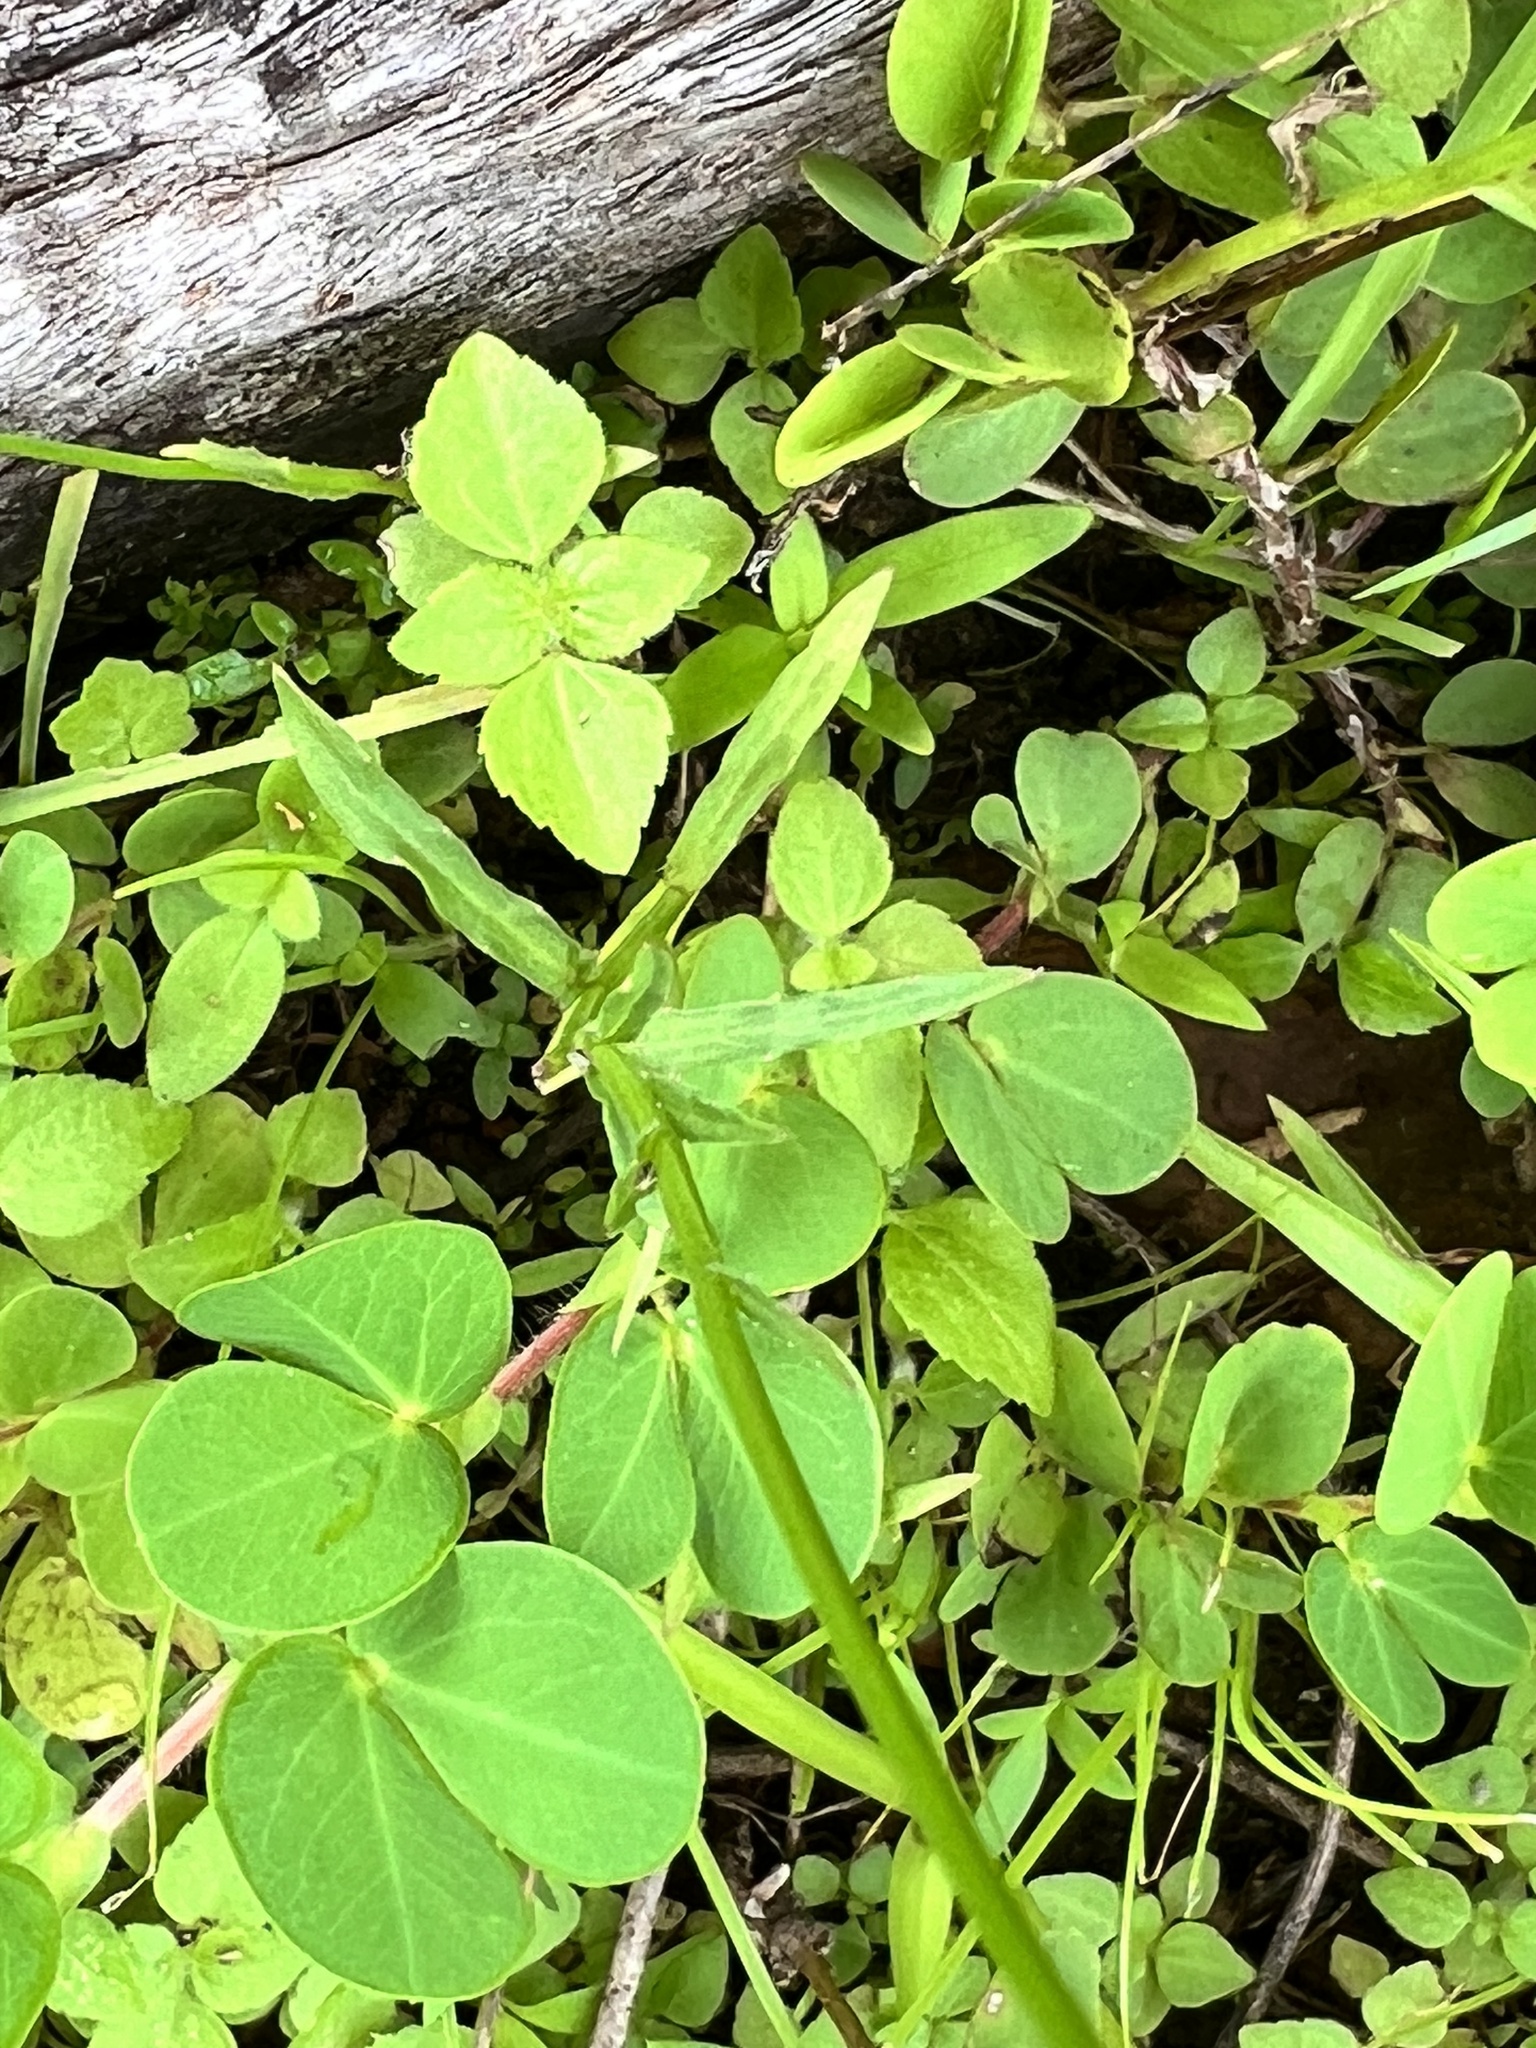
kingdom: Plantae
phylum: Tracheophyta
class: Magnoliopsida
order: Fabales
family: Fabaceae
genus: Chamaecrista
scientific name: Chamaecrista rotundifolia
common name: Round-leaf cassia
